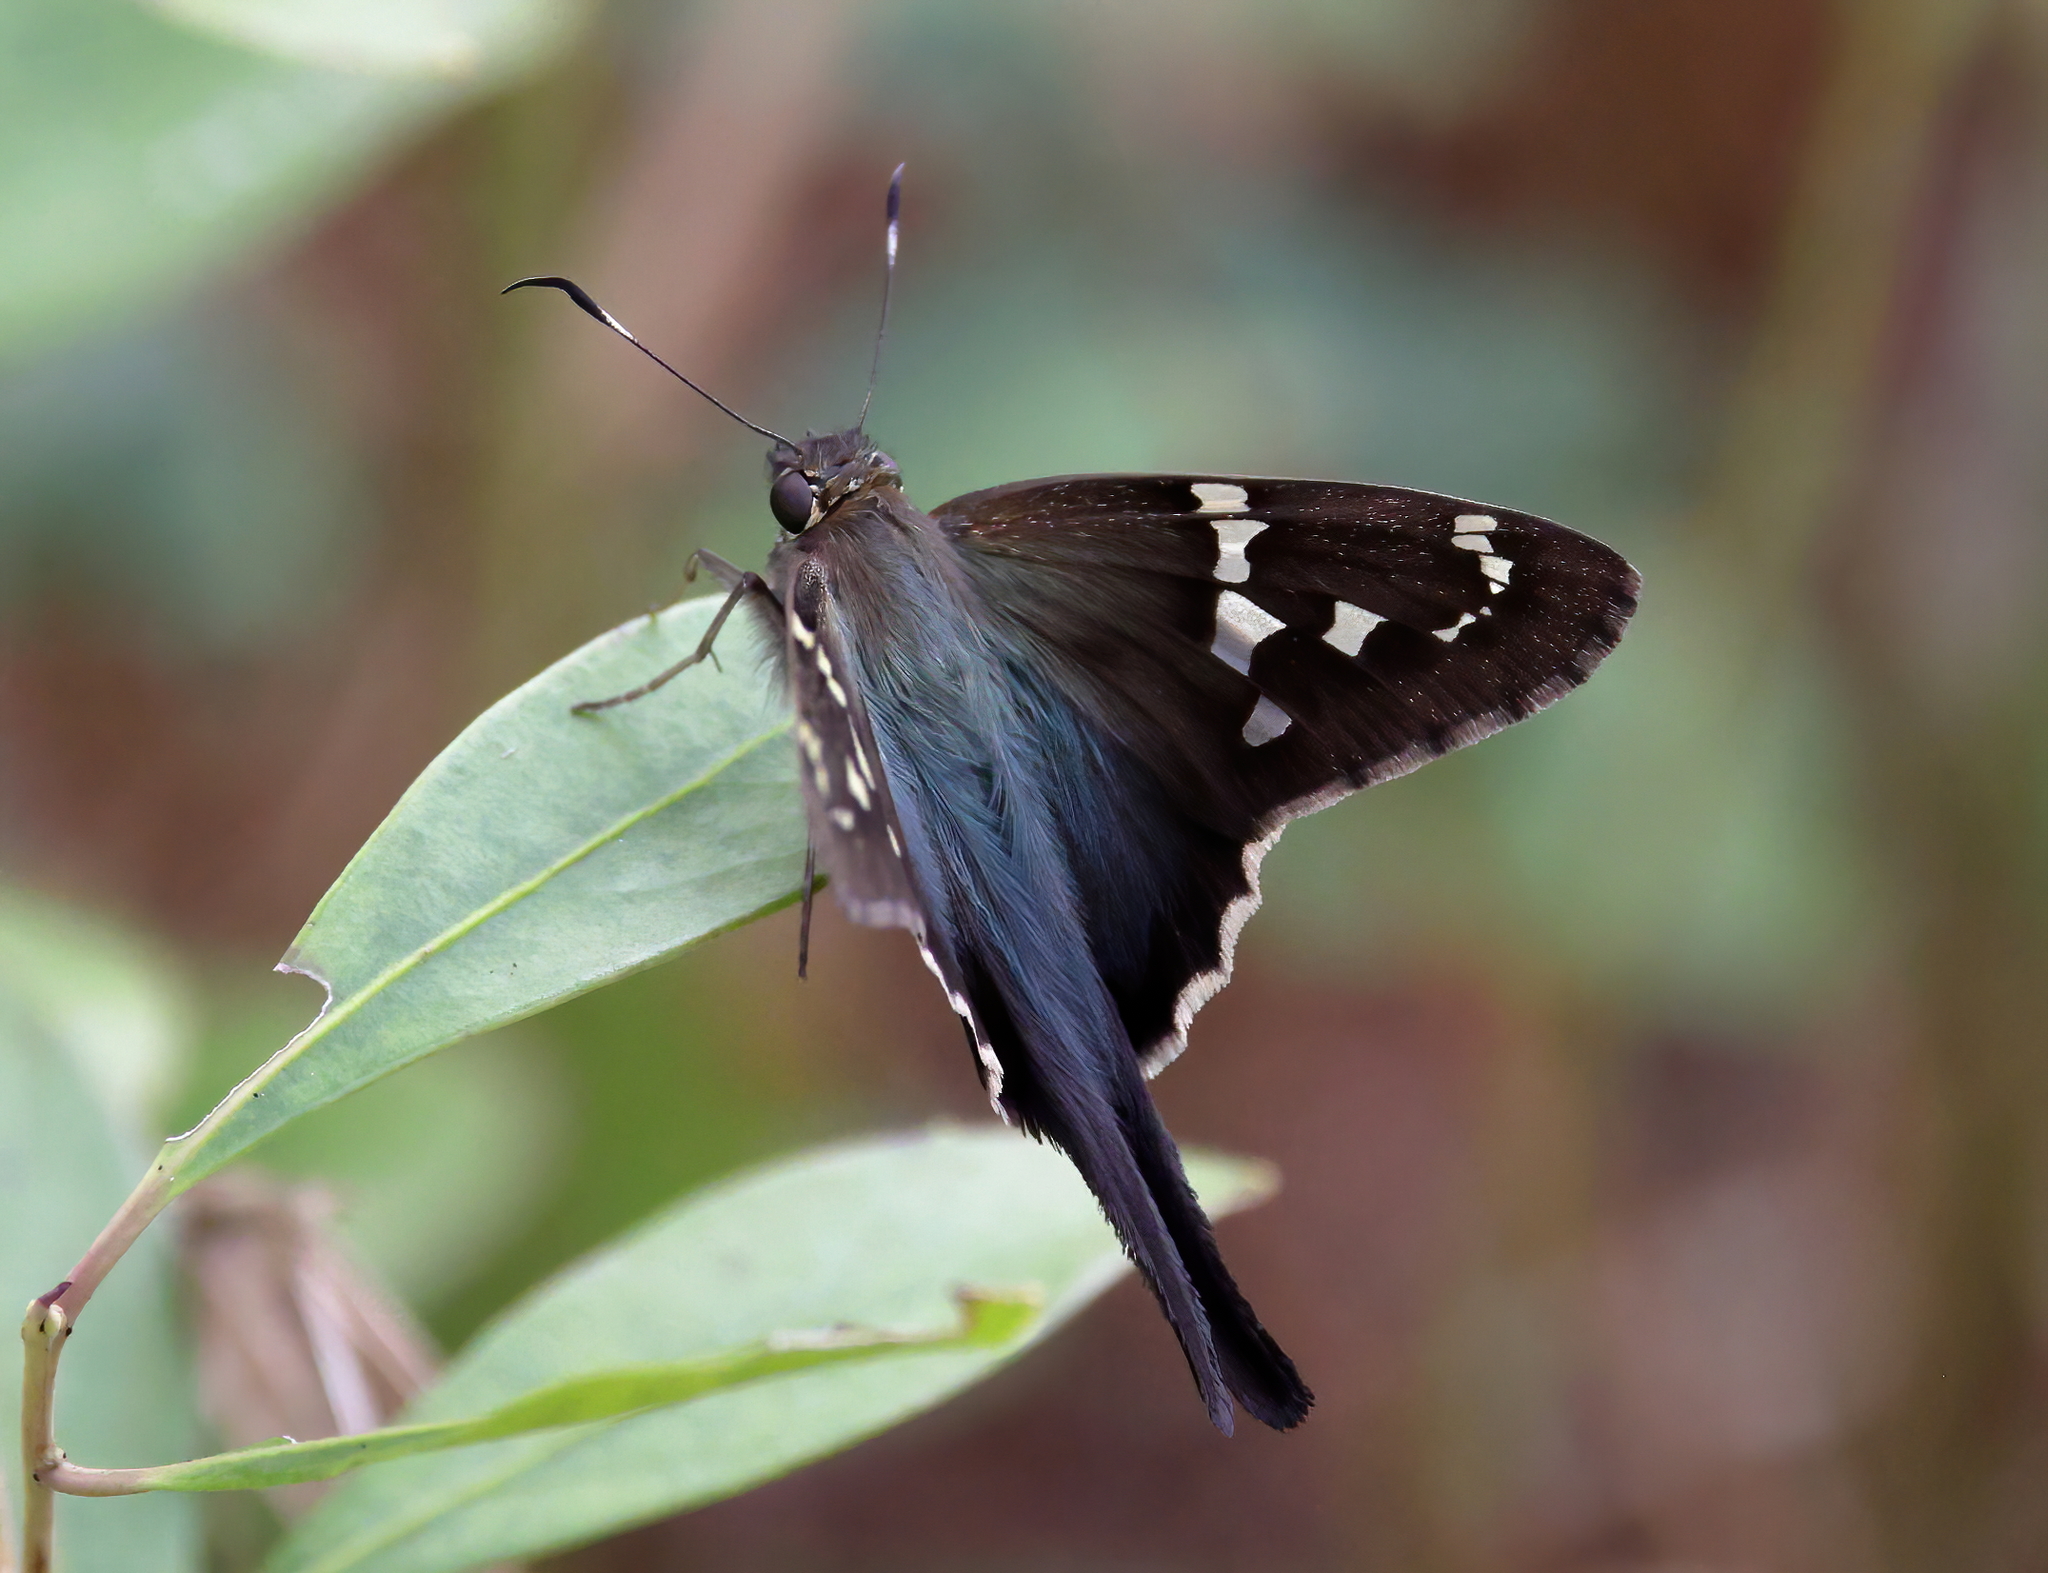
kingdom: Animalia
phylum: Arthropoda
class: Insecta
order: Lepidoptera
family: Hesperiidae
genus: Urbanus
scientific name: Urbanus proteus
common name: Long-tailed skipper
